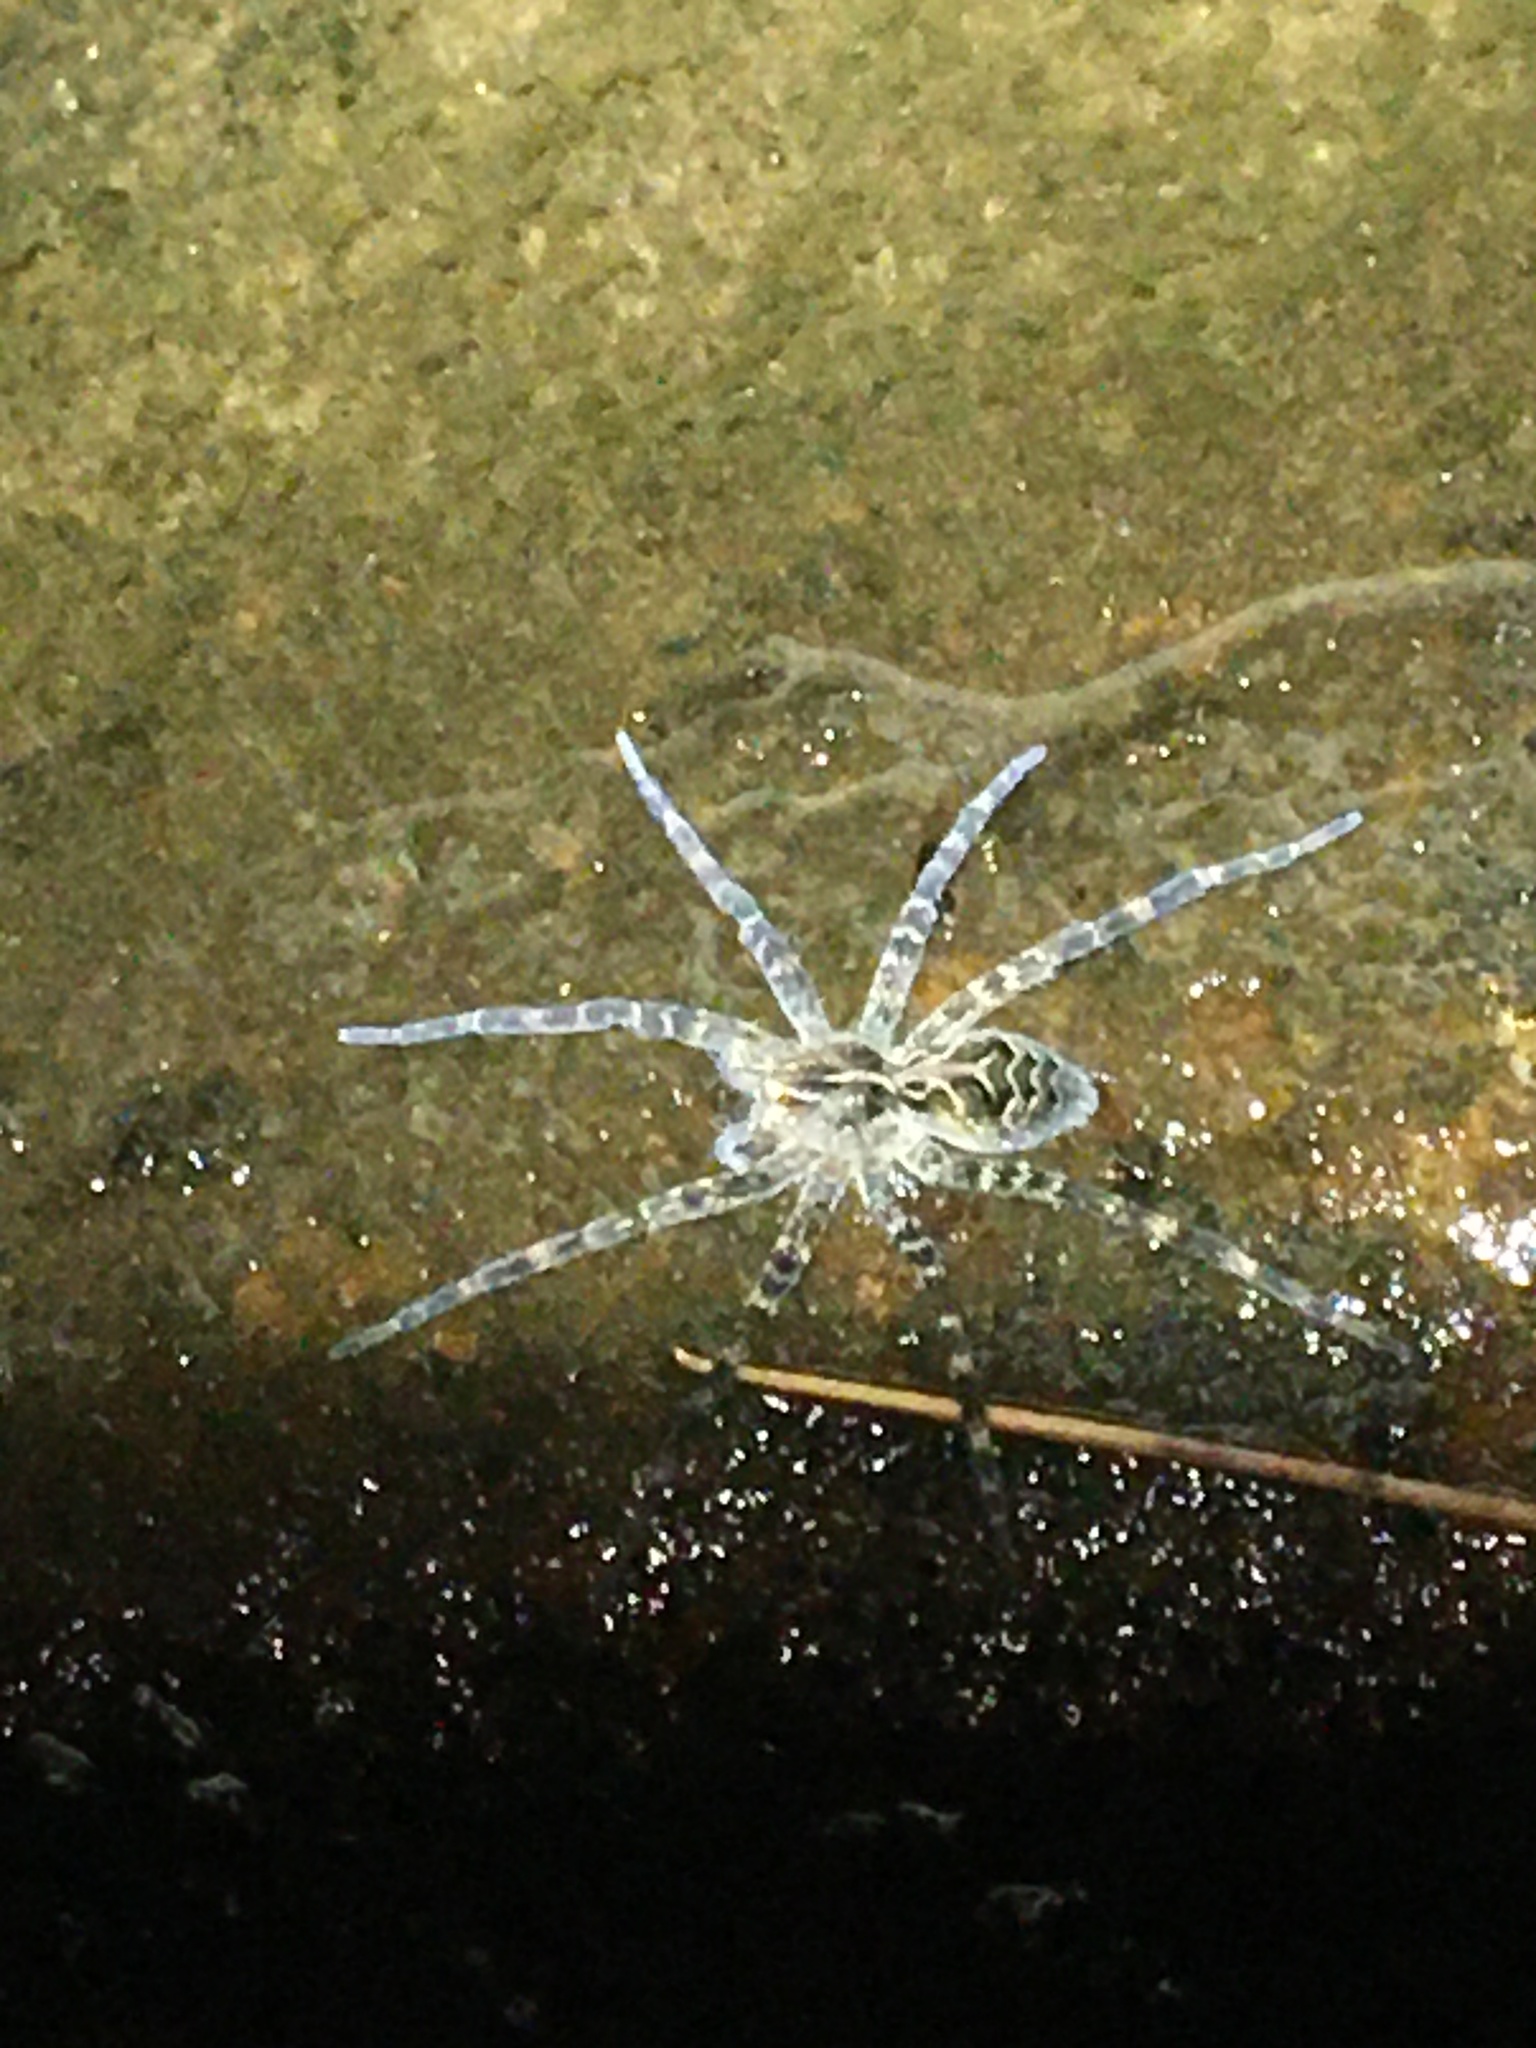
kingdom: Animalia
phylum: Arthropoda
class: Arachnida
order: Araneae
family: Pisauridae
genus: Dolomedes
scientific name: Dolomedes scriptus
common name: Striped fishing spider
